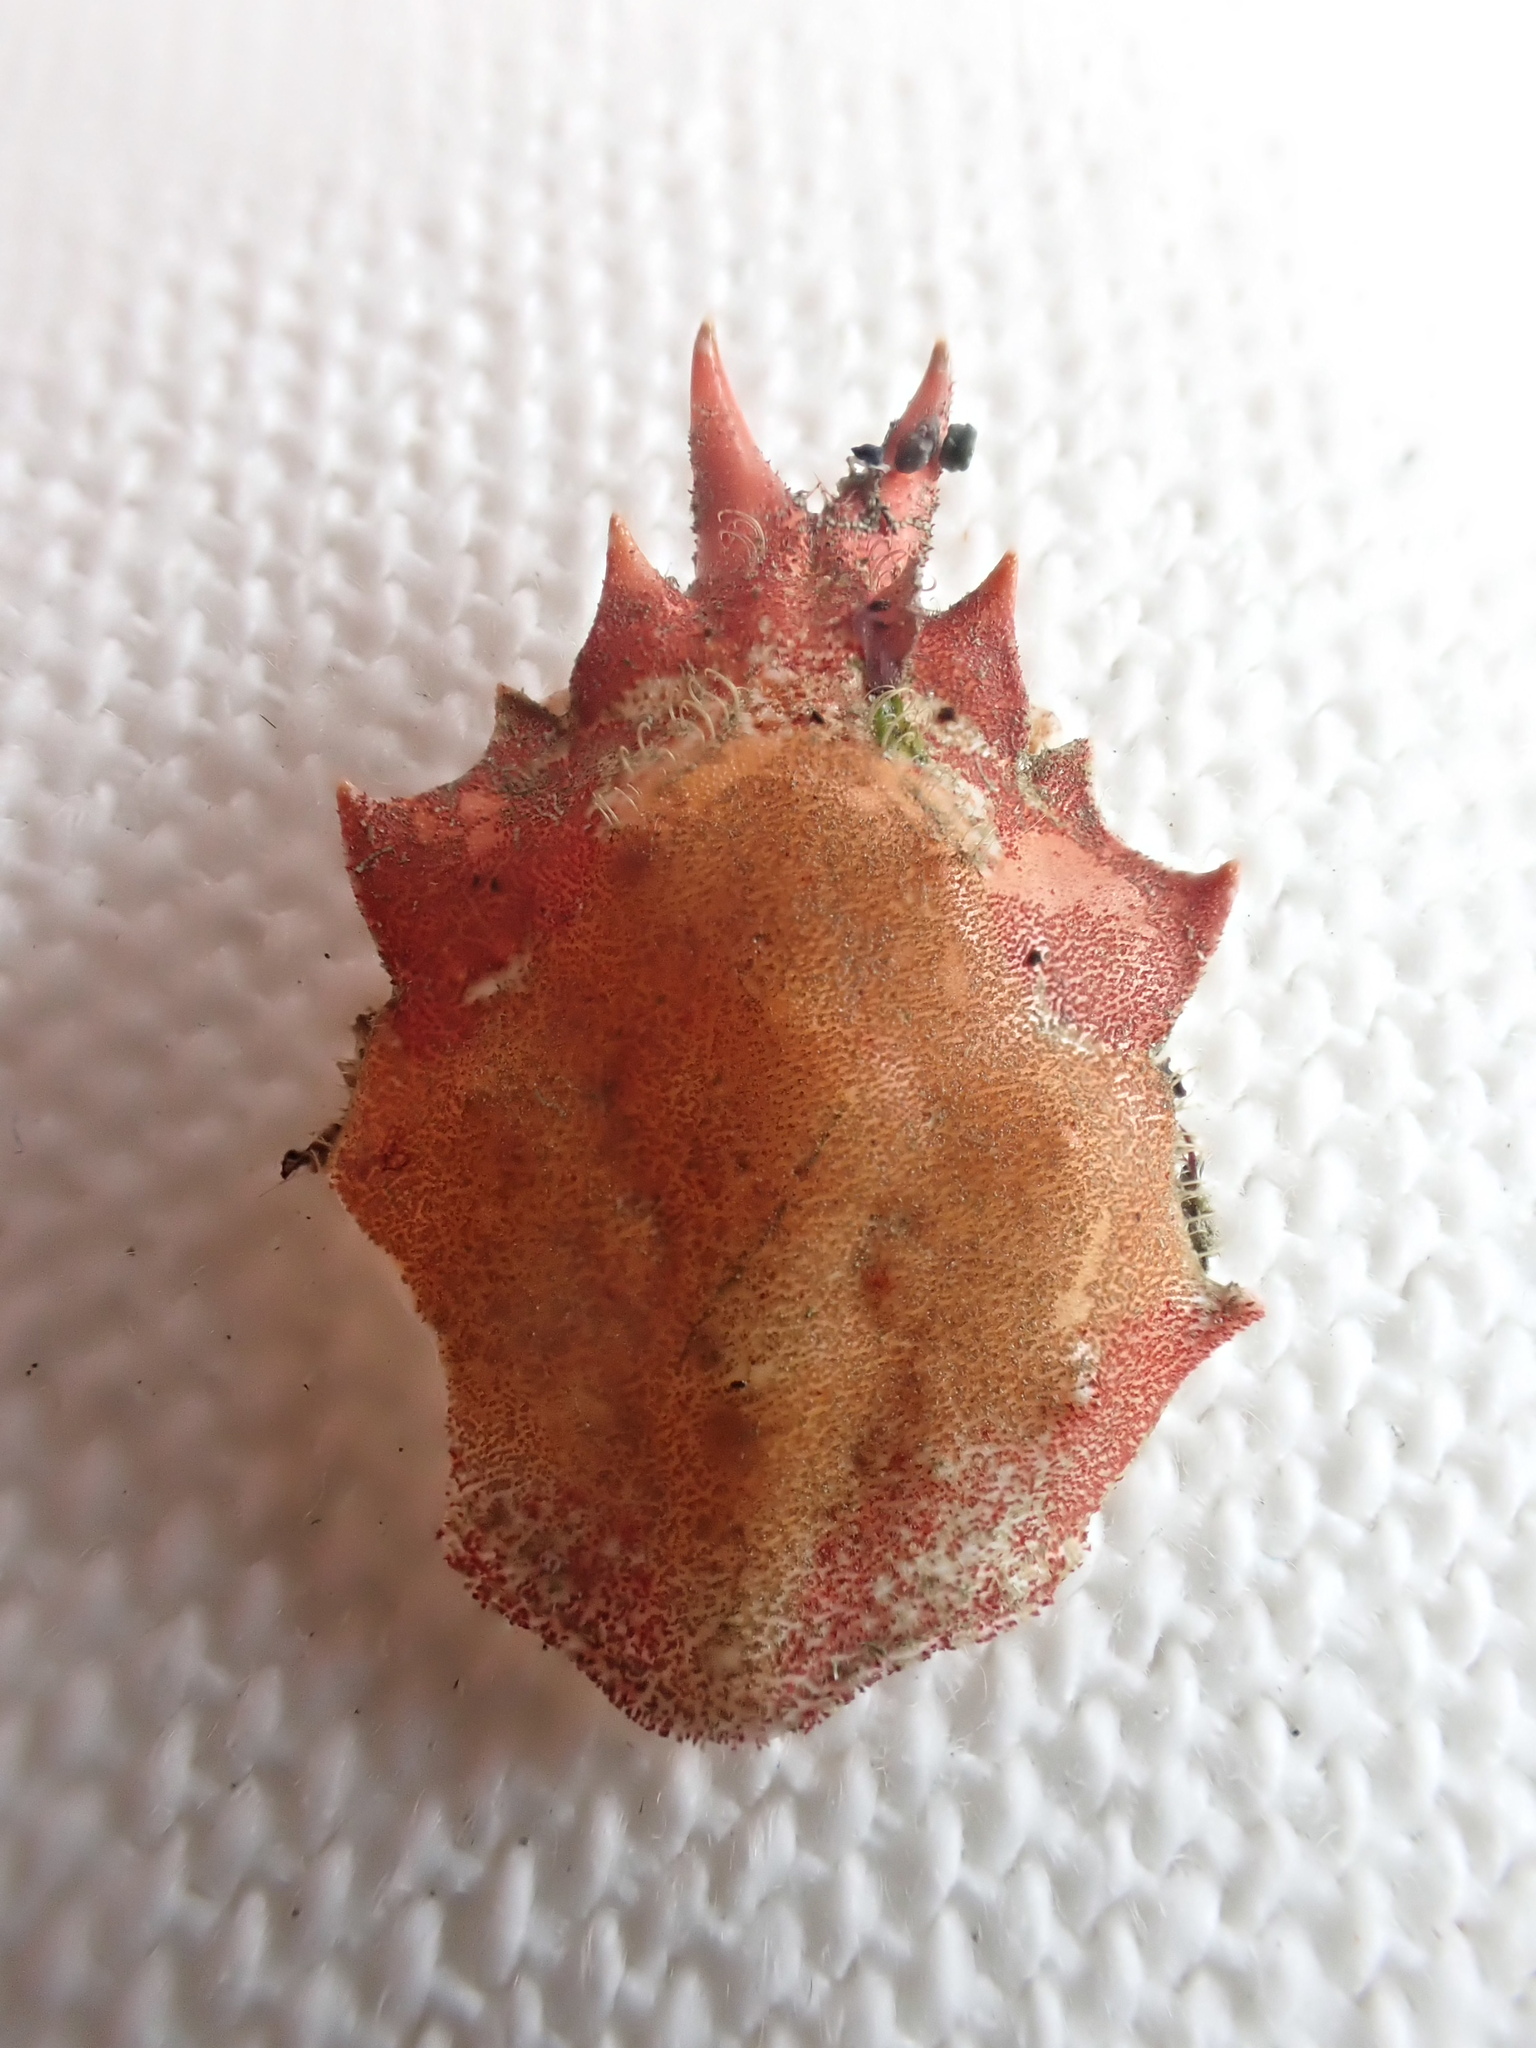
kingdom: Animalia
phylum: Arthropoda
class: Malacostraca
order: Decapoda
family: Epialtidae
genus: Pugettia
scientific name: Pugettia gracilis
